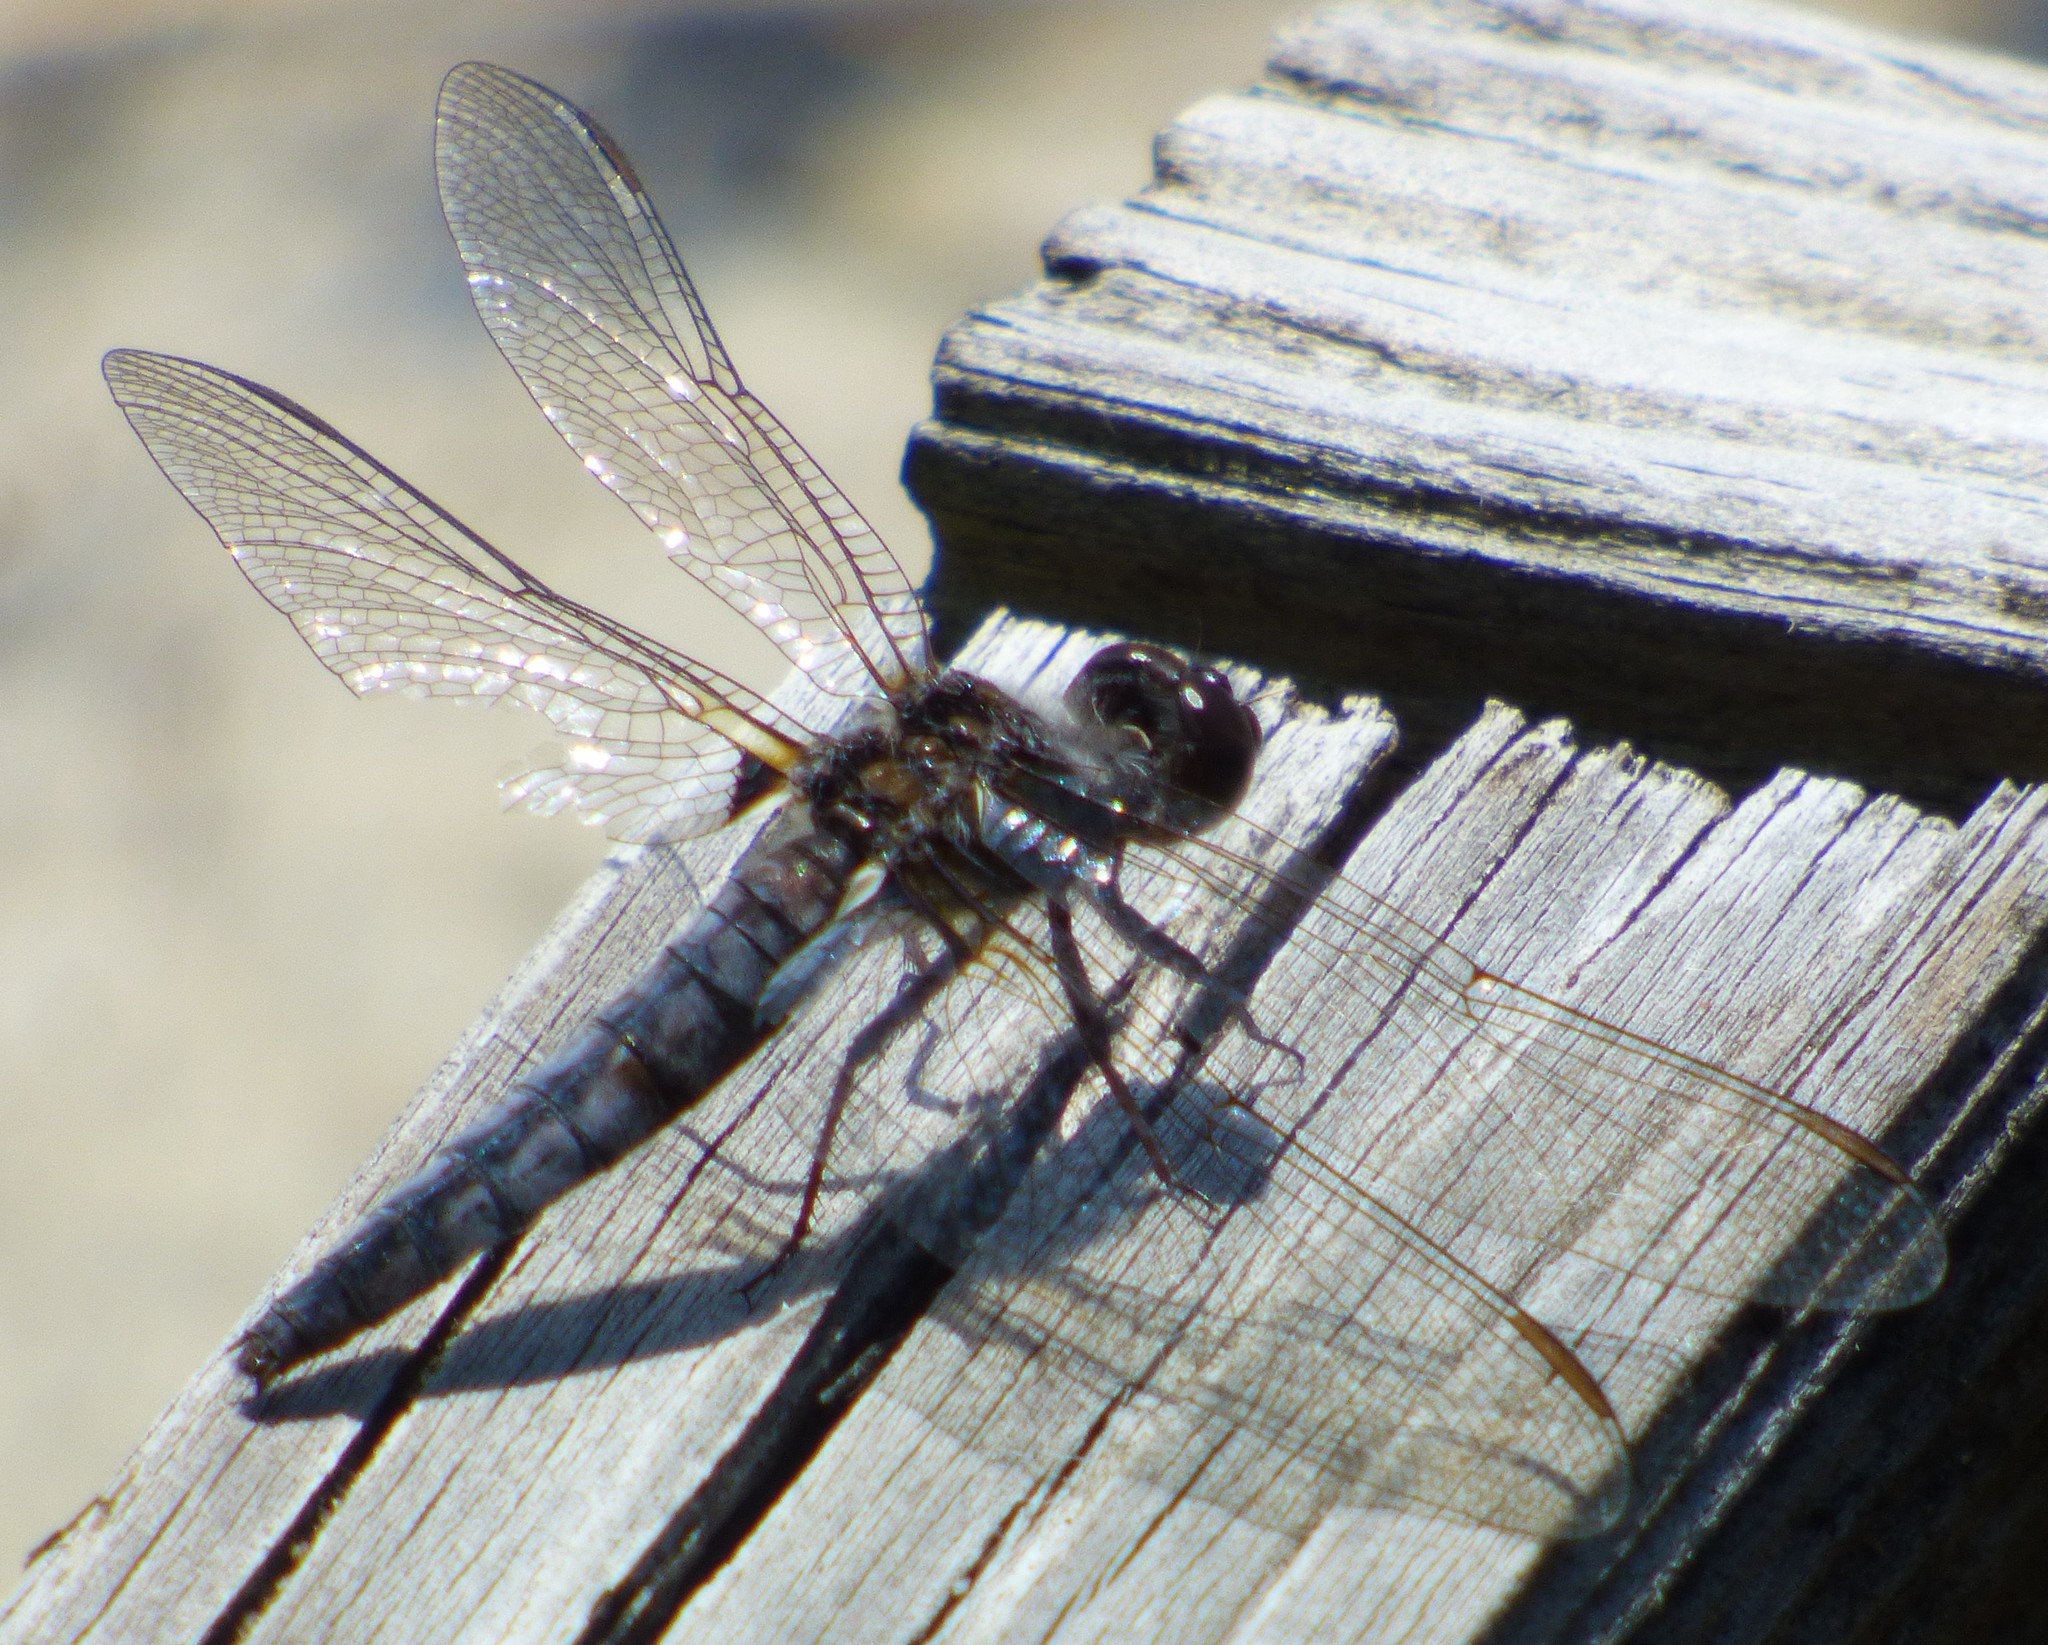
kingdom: Animalia
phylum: Arthropoda
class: Insecta
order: Odonata
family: Libellulidae
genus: Ladona
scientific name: Ladona deplanata
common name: Blue corporal
